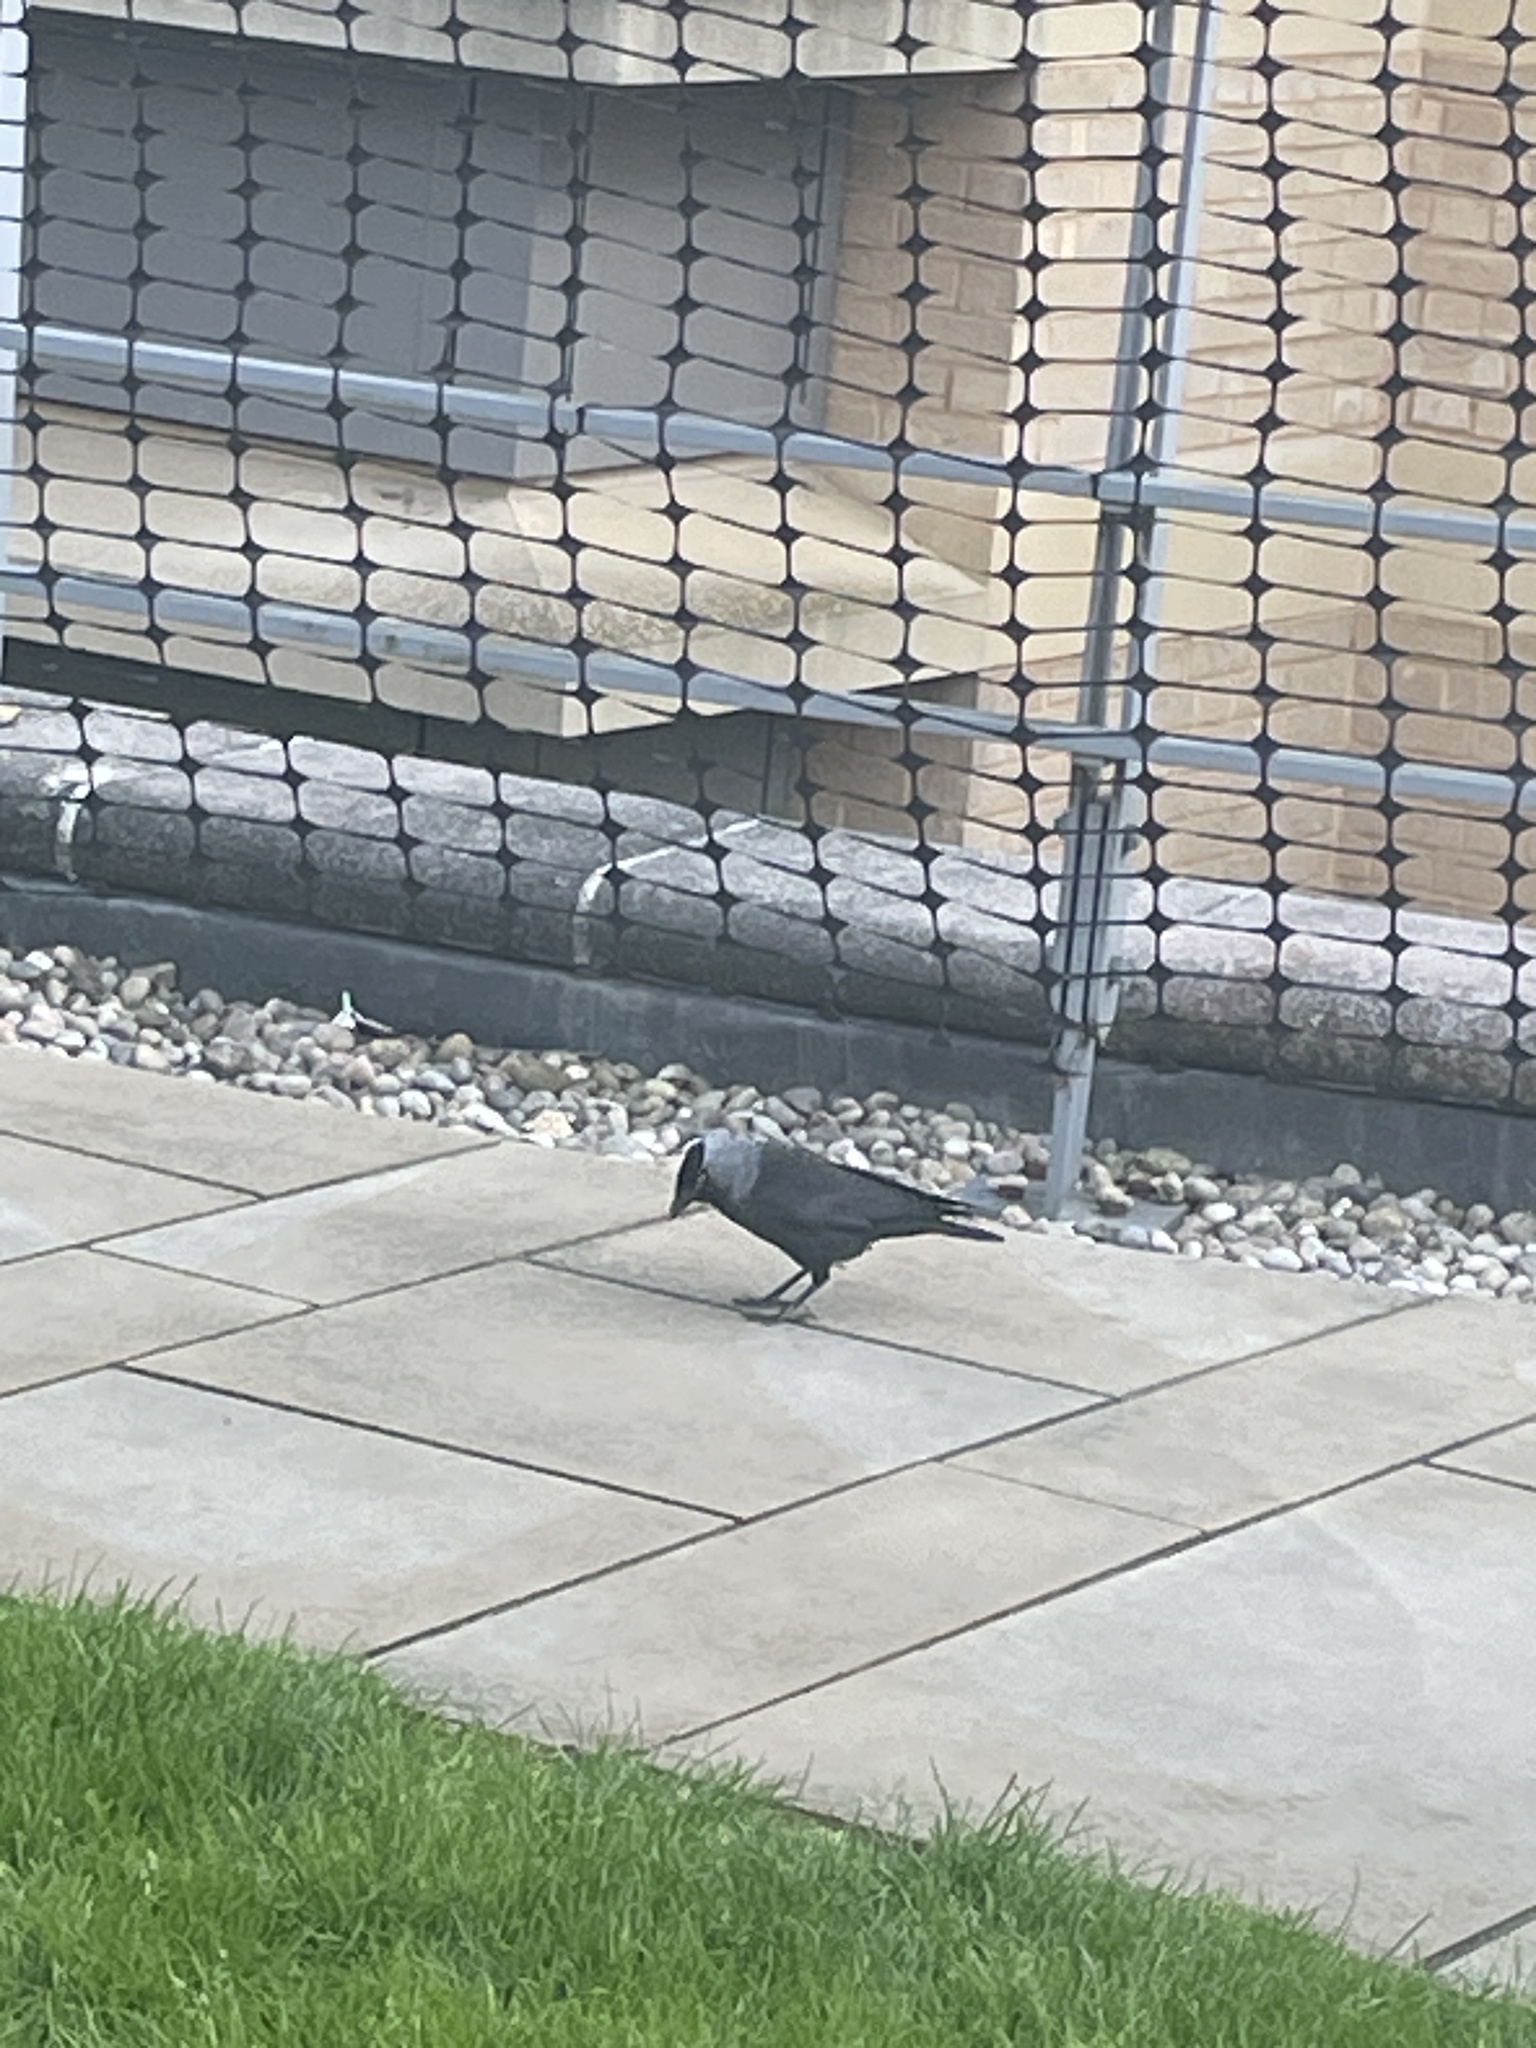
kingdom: Animalia
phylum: Chordata
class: Aves
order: Passeriformes
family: Corvidae
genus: Coloeus
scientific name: Coloeus monedula
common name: Western jackdaw
